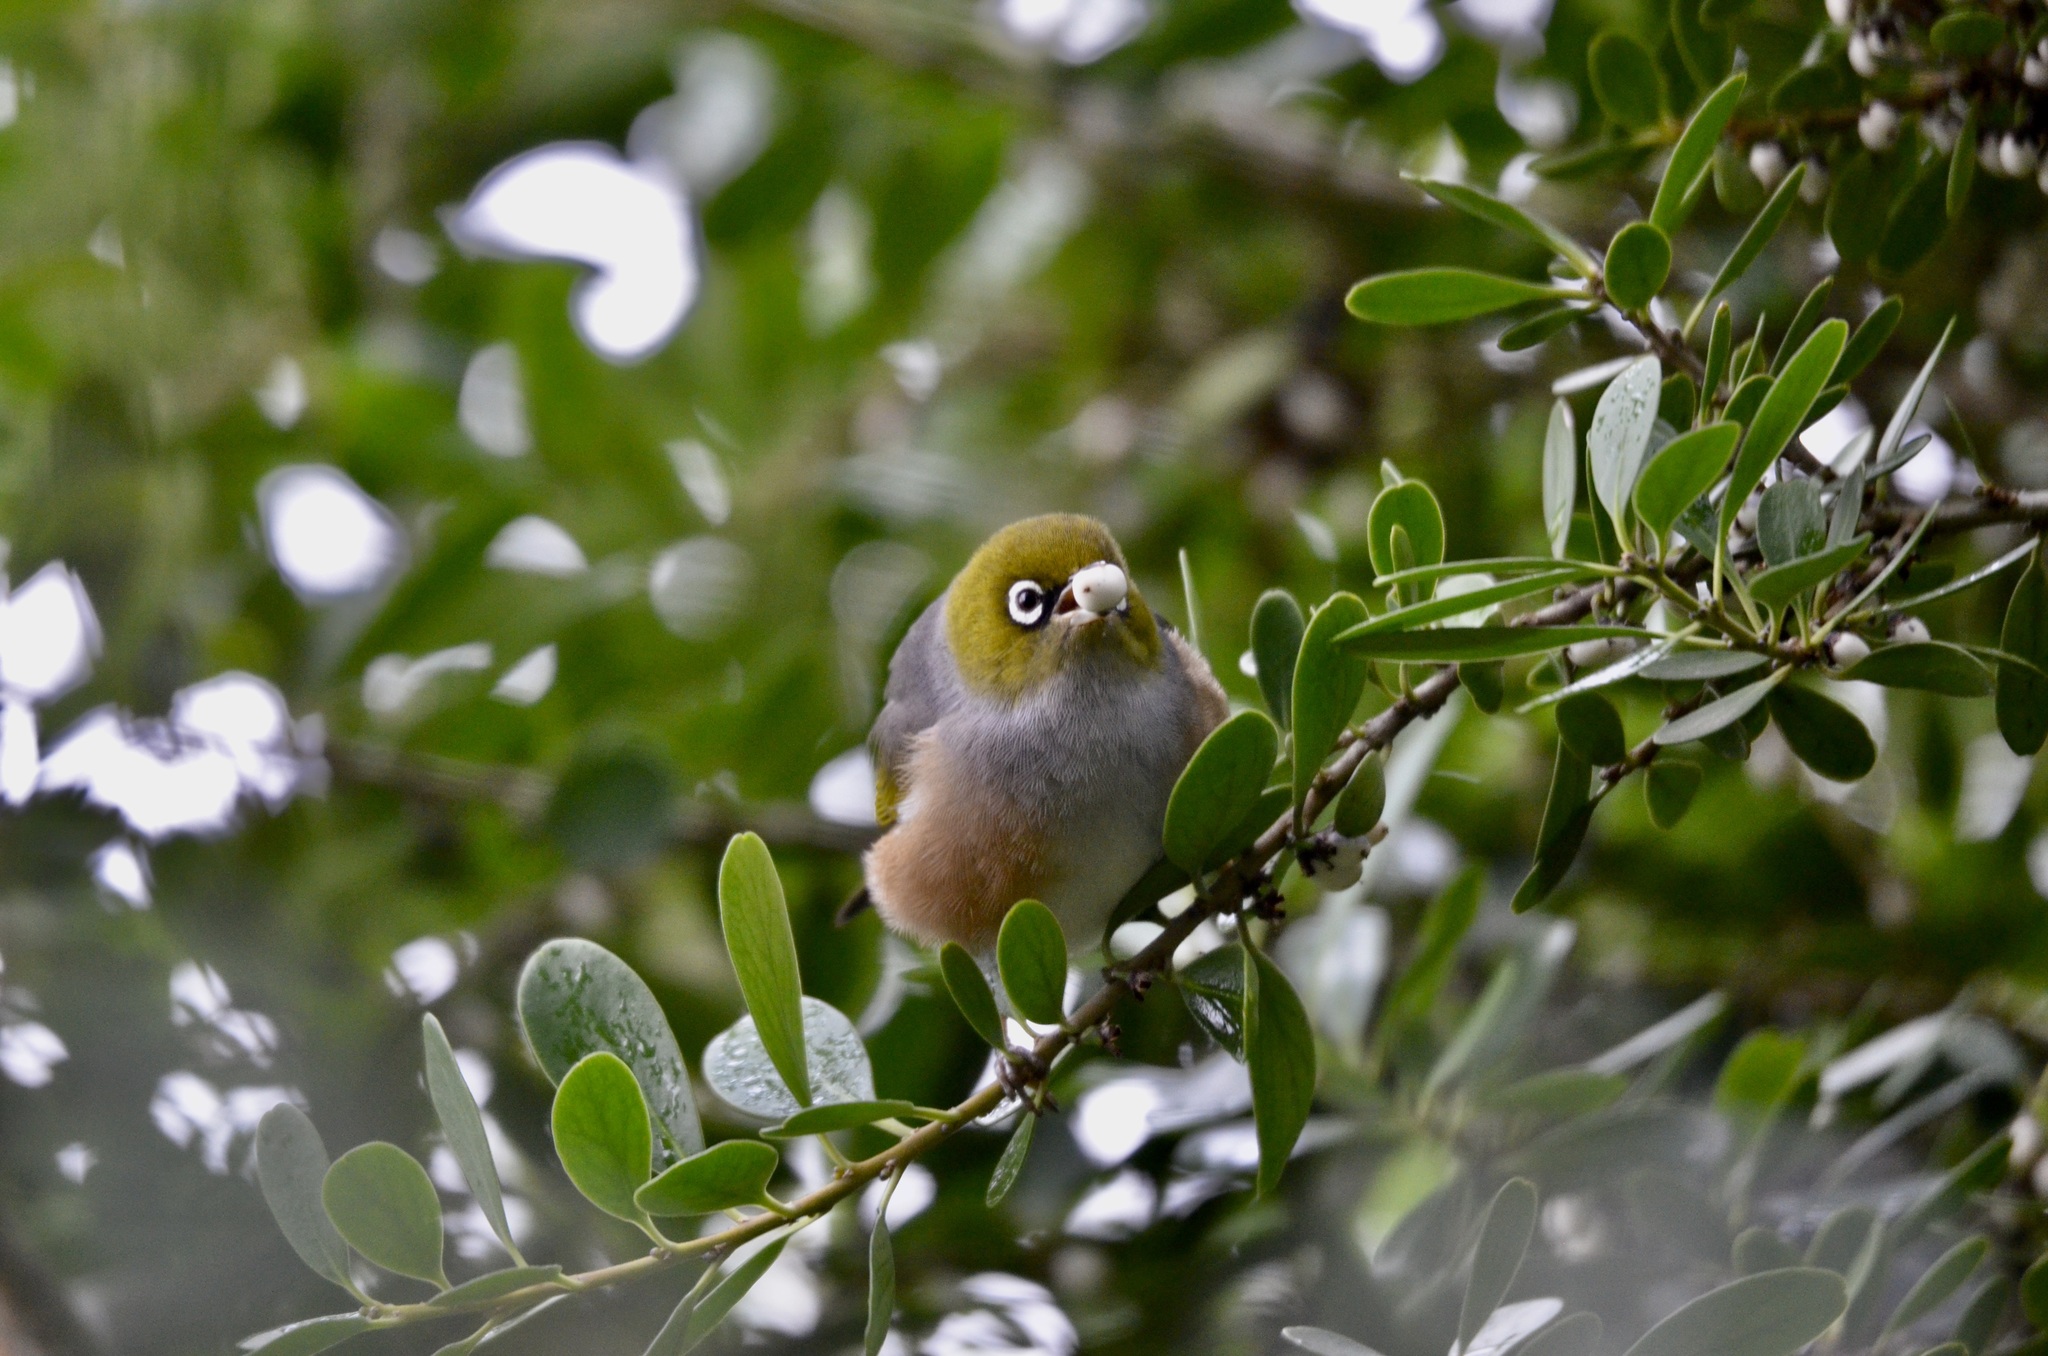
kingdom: Animalia
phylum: Chordata
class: Aves
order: Passeriformes
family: Zosteropidae
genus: Zosterops
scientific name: Zosterops lateralis
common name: Silvereye
